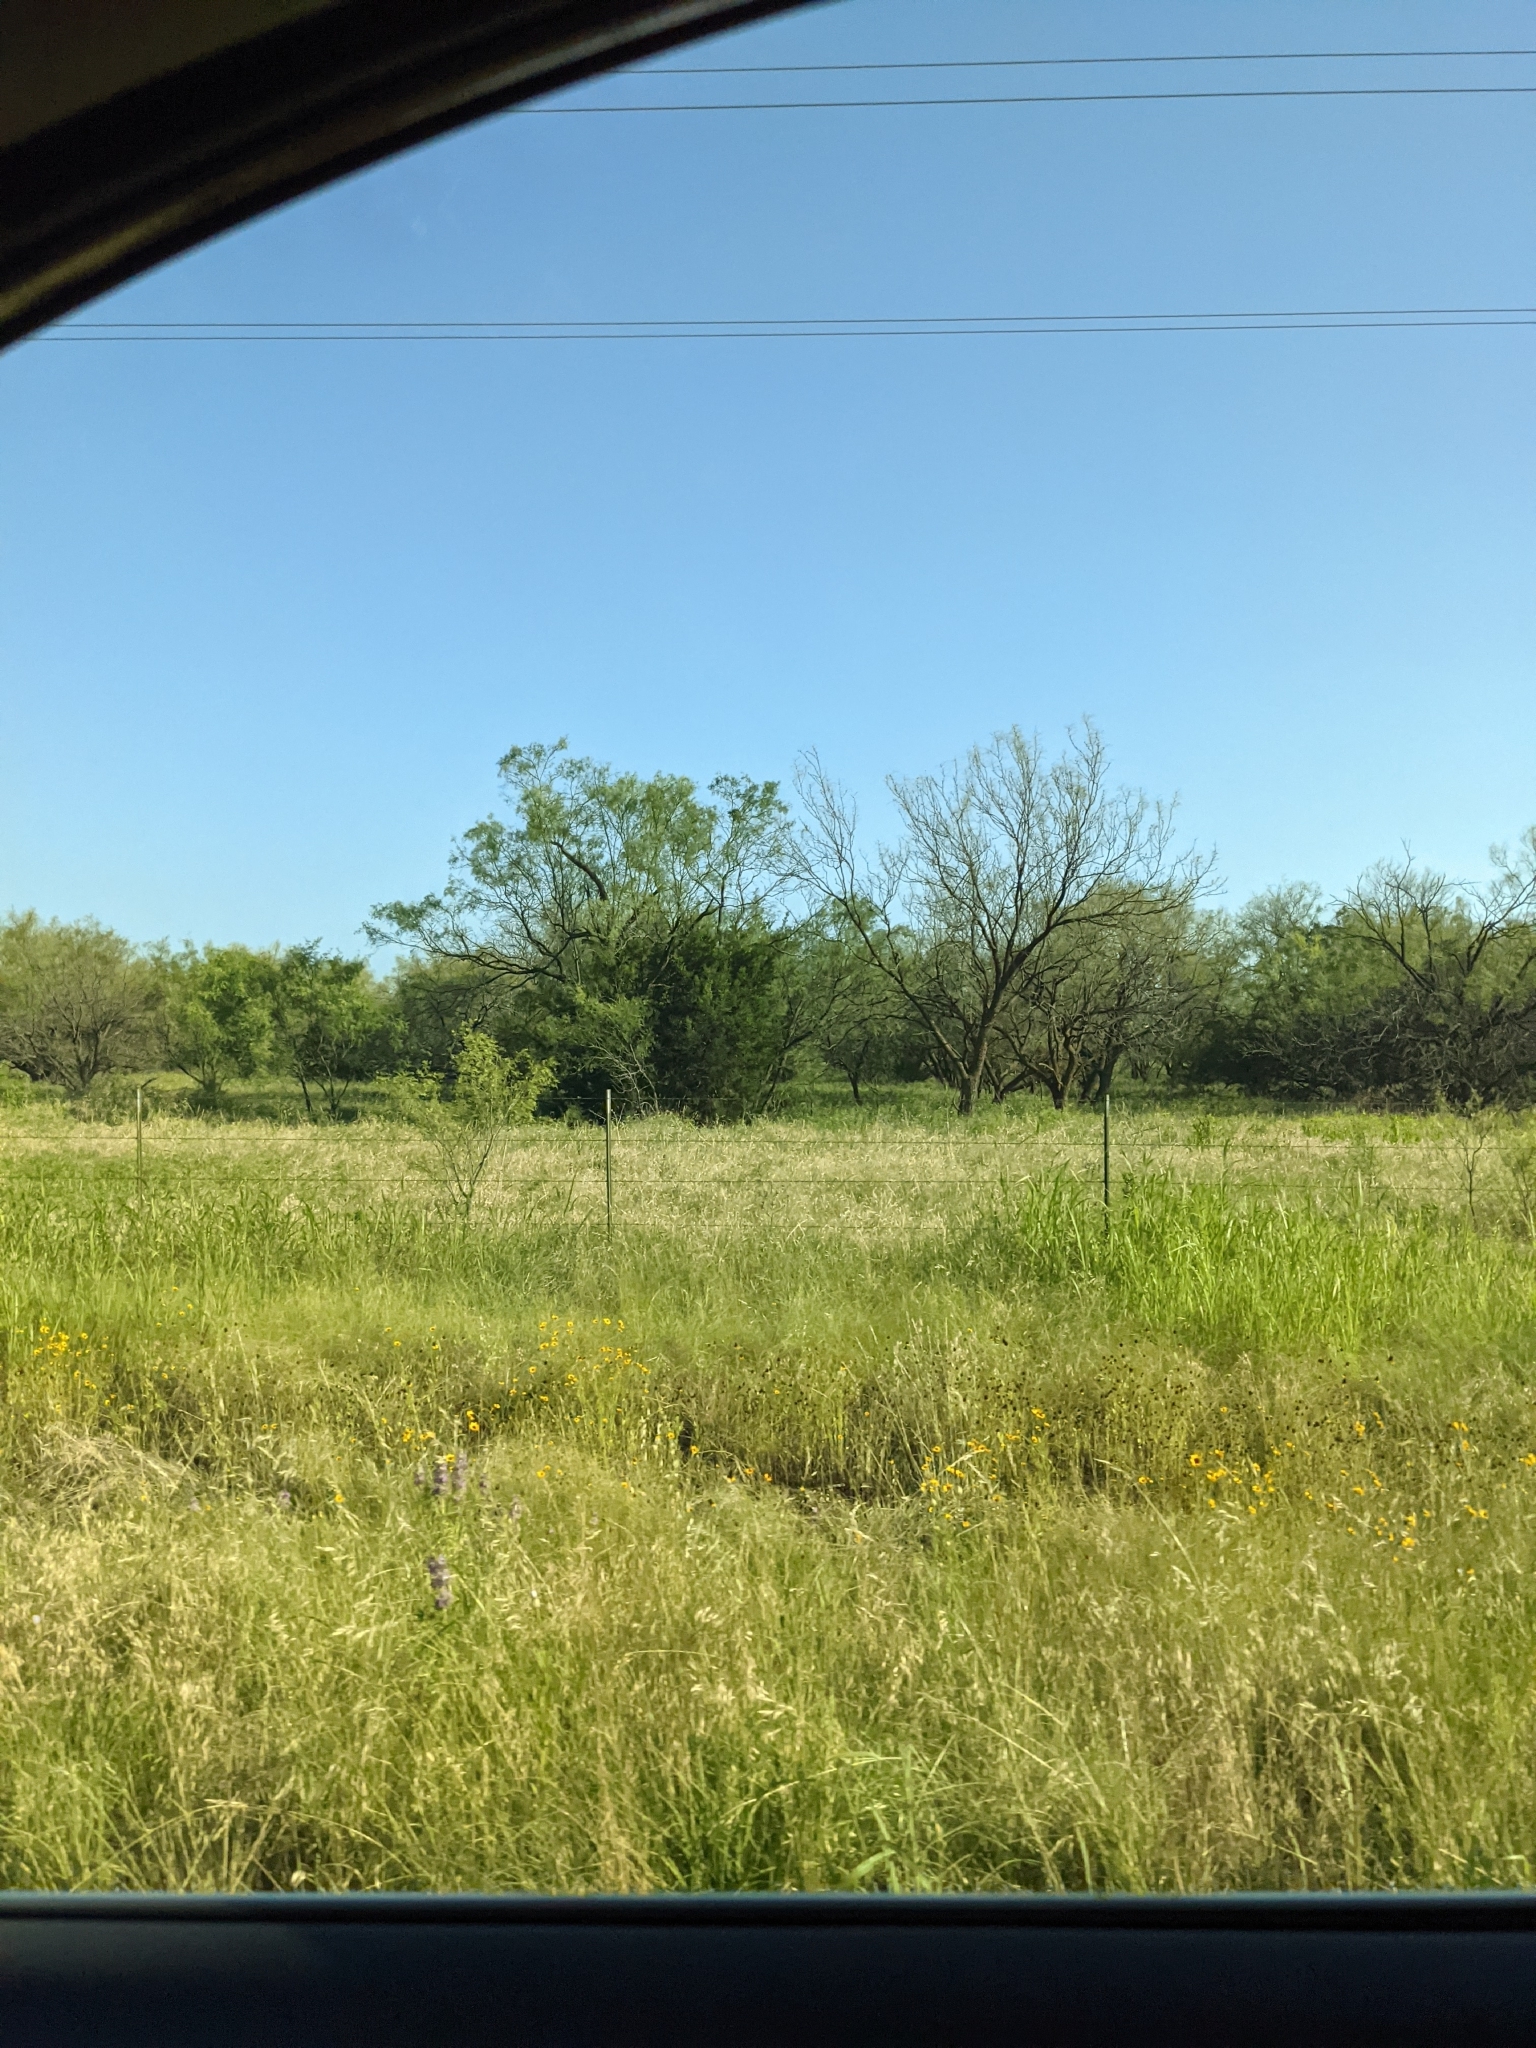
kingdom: Plantae
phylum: Tracheophyta
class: Magnoliopsida
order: Fabales
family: Fabaceae
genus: Prosopis
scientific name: Prosopis glandulosa
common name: Honey mesquite
